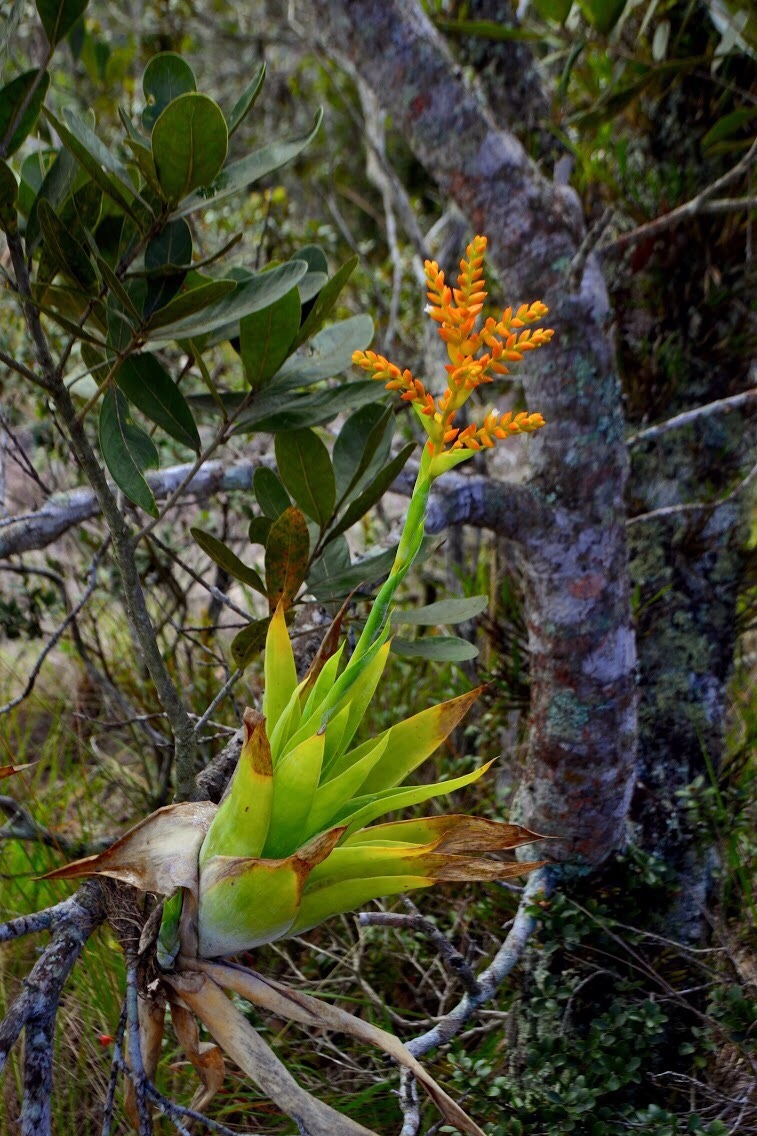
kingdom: Plantae
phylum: Tracheophyta
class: Liliopsida
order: Poales
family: Bromeliaceae
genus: Catopsis
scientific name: Catopsis occulta
